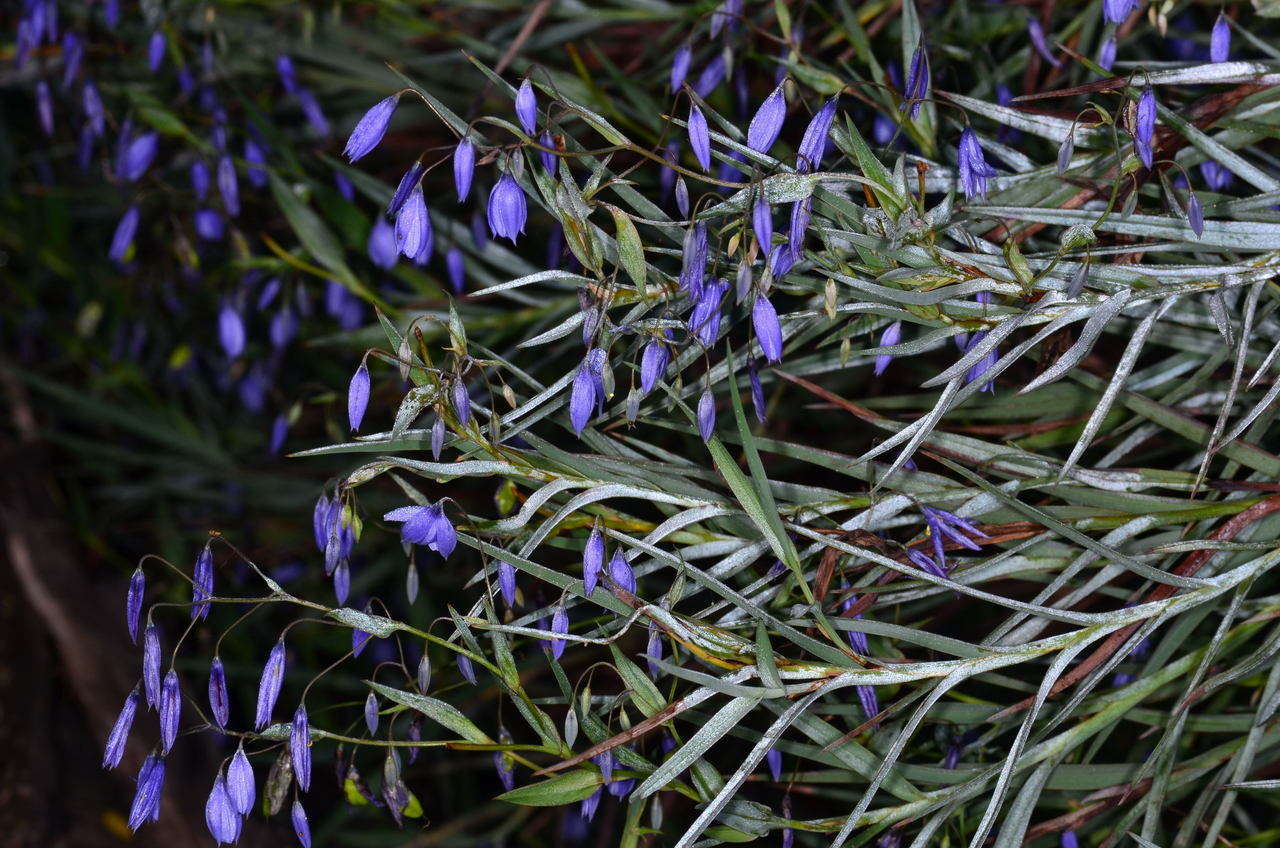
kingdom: Plantae
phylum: Tracheophyta
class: Liliopsida
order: Asparagales
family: Asphodelaceae
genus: Stypandra
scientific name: Stypandra glauca
